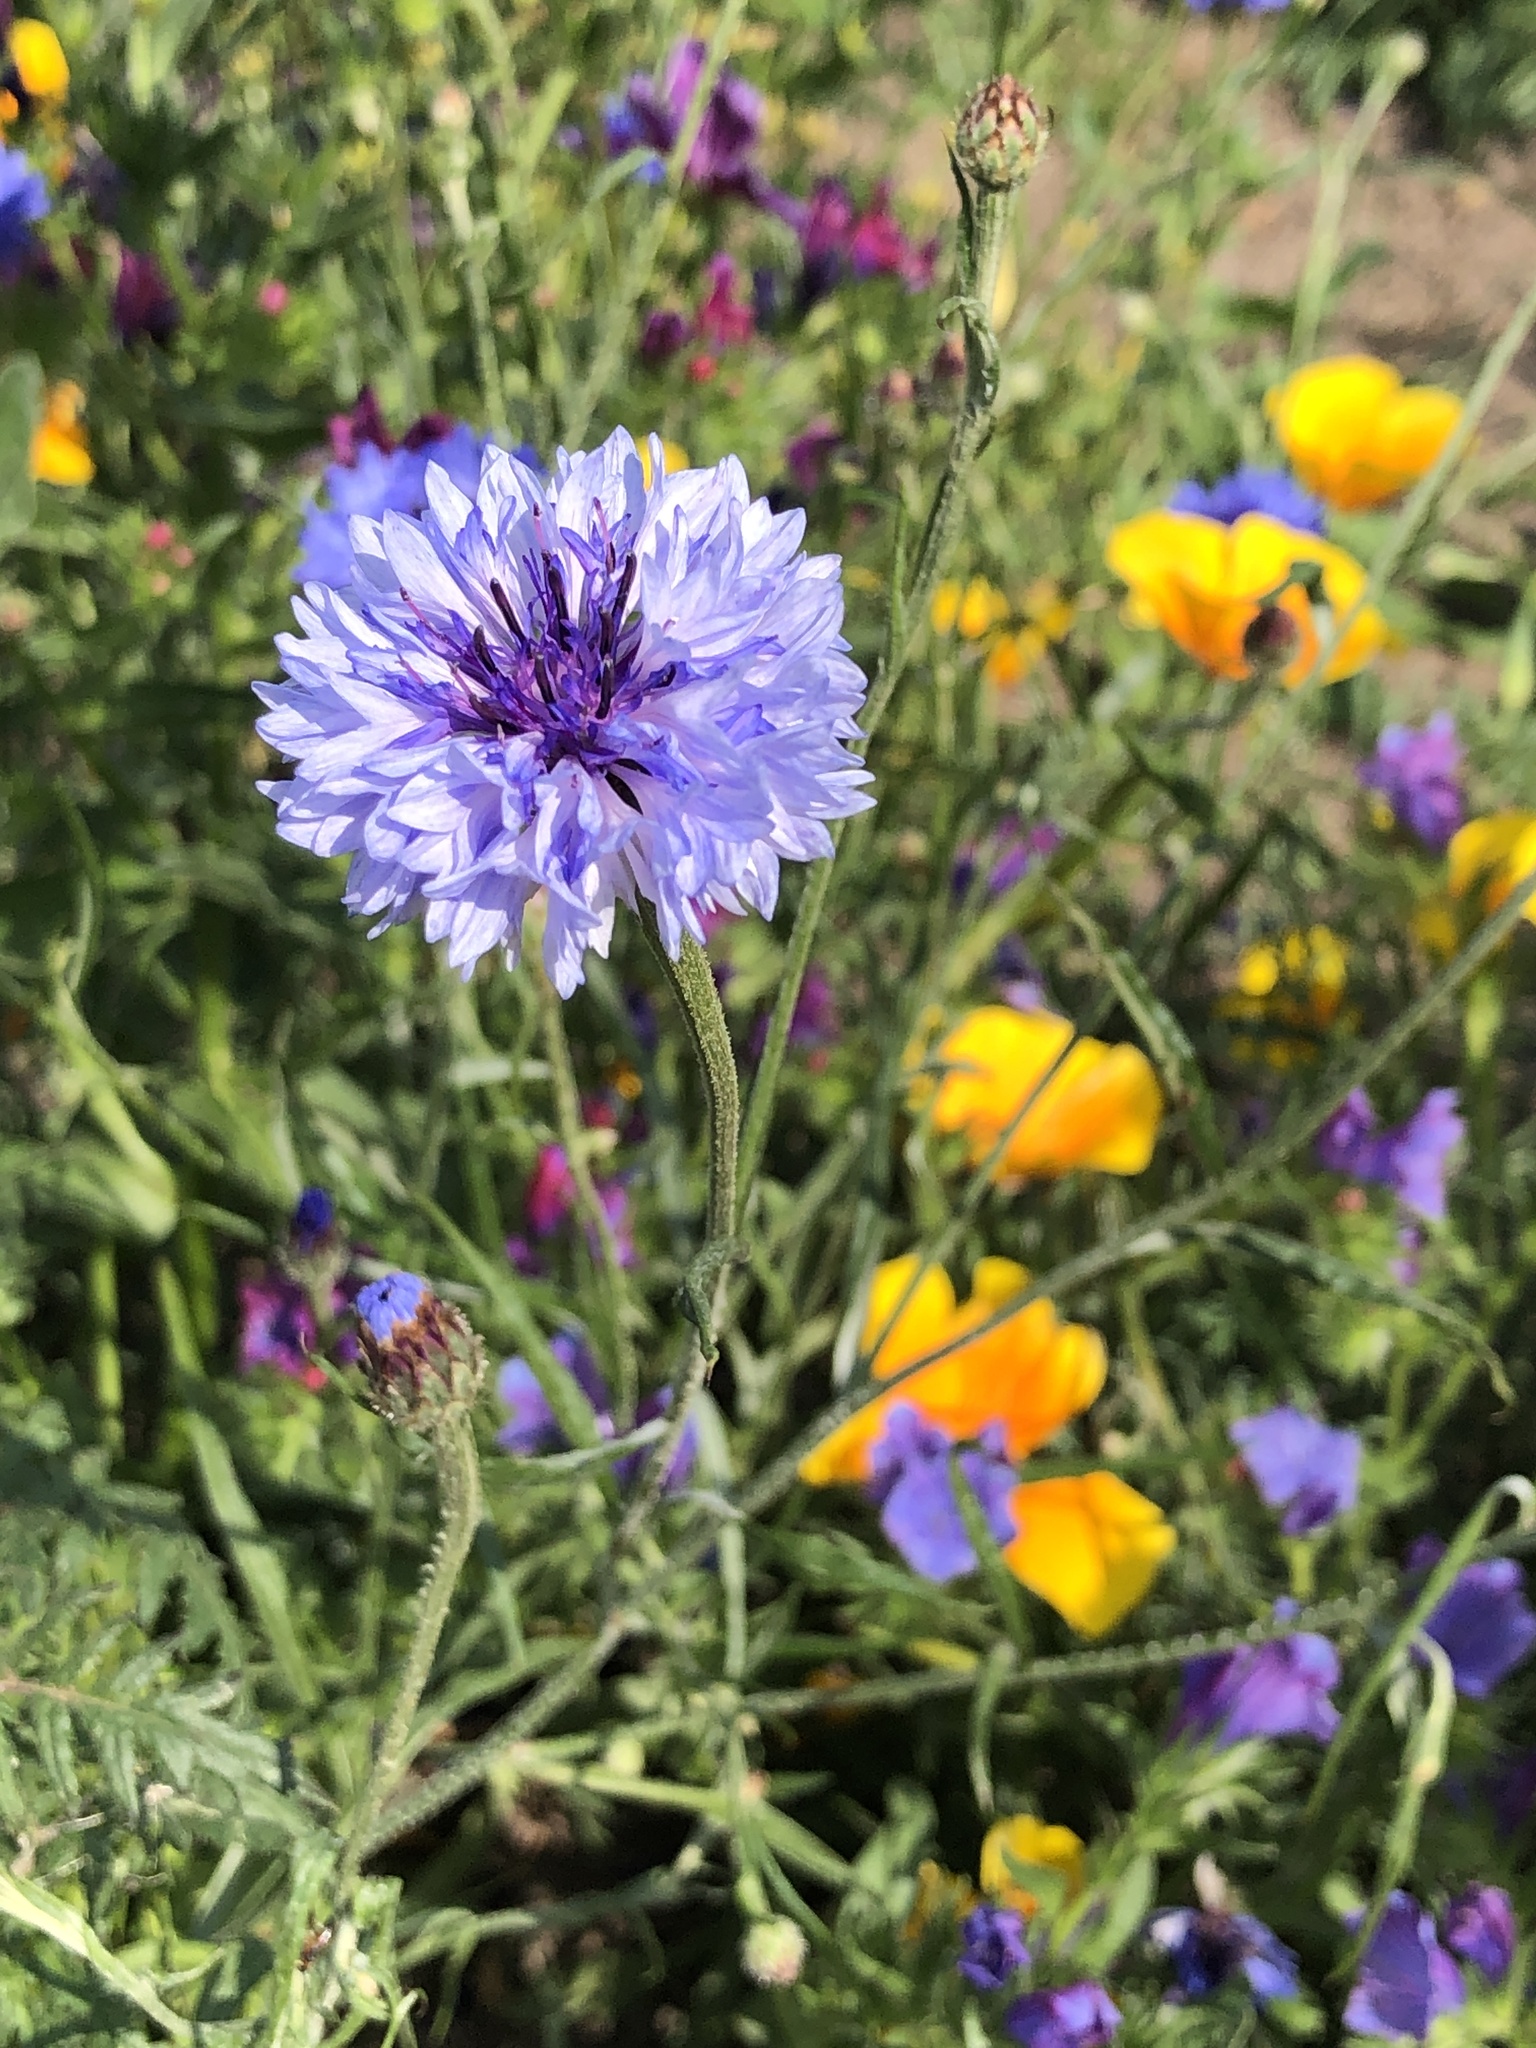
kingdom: Plantae
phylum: Tracheophyta
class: Magnoliopsida
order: Asterales
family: Asteraceae
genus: Centaurea
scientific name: Centaurea cyanus
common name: Cornflower
